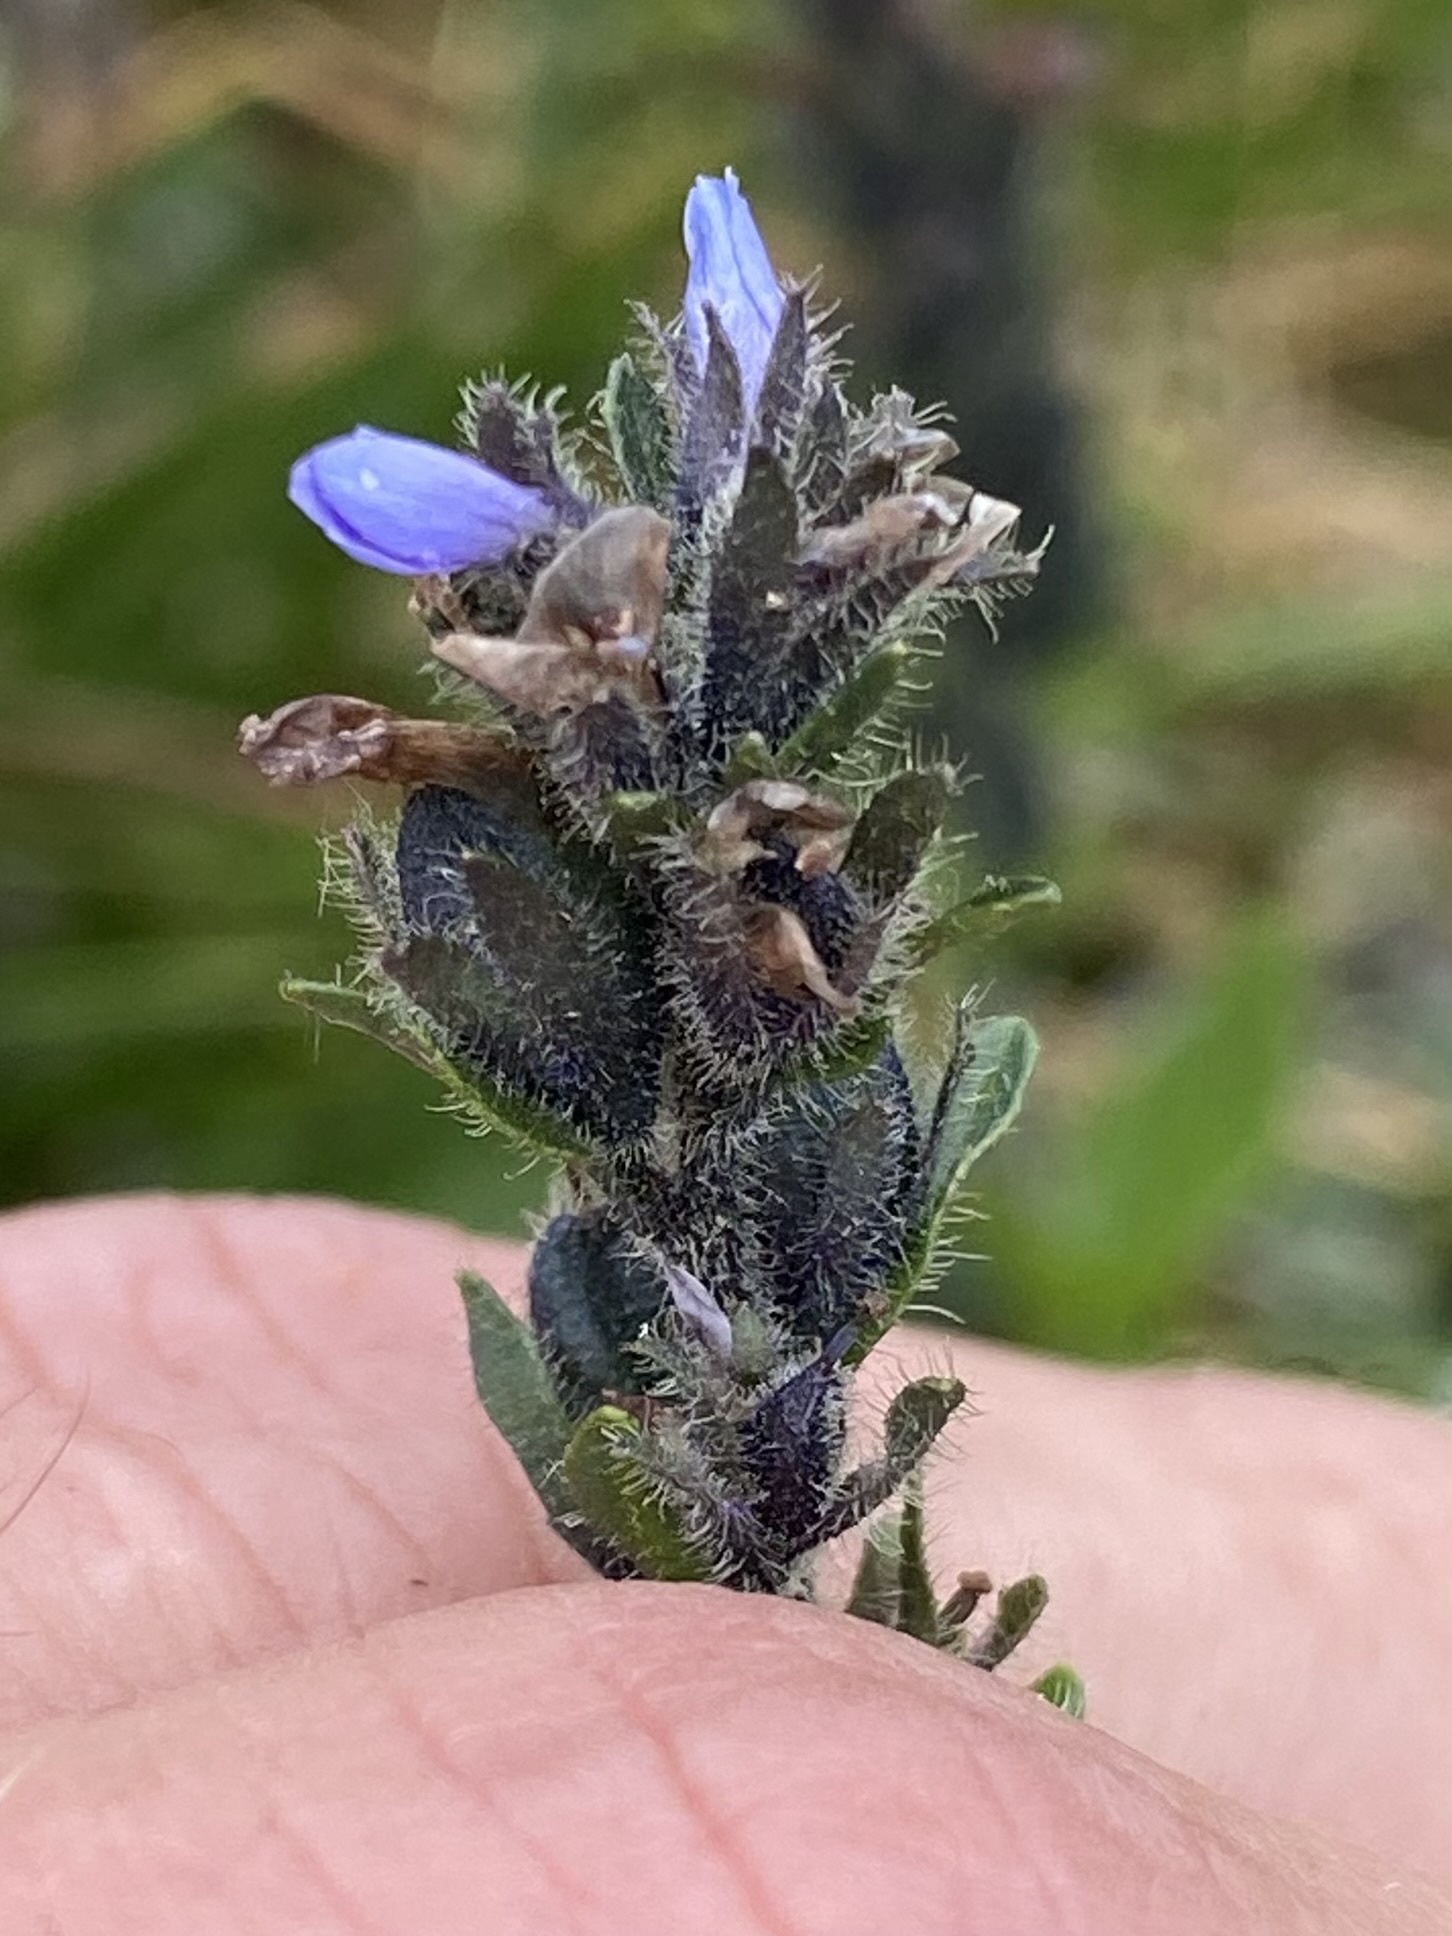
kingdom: Plantae
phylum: Tracheophyta
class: Magnoliopsida
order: Lamiales
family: Plantaginaceae
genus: Veronica
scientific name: Veronica wormskjoldii
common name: American alpine speedwell
